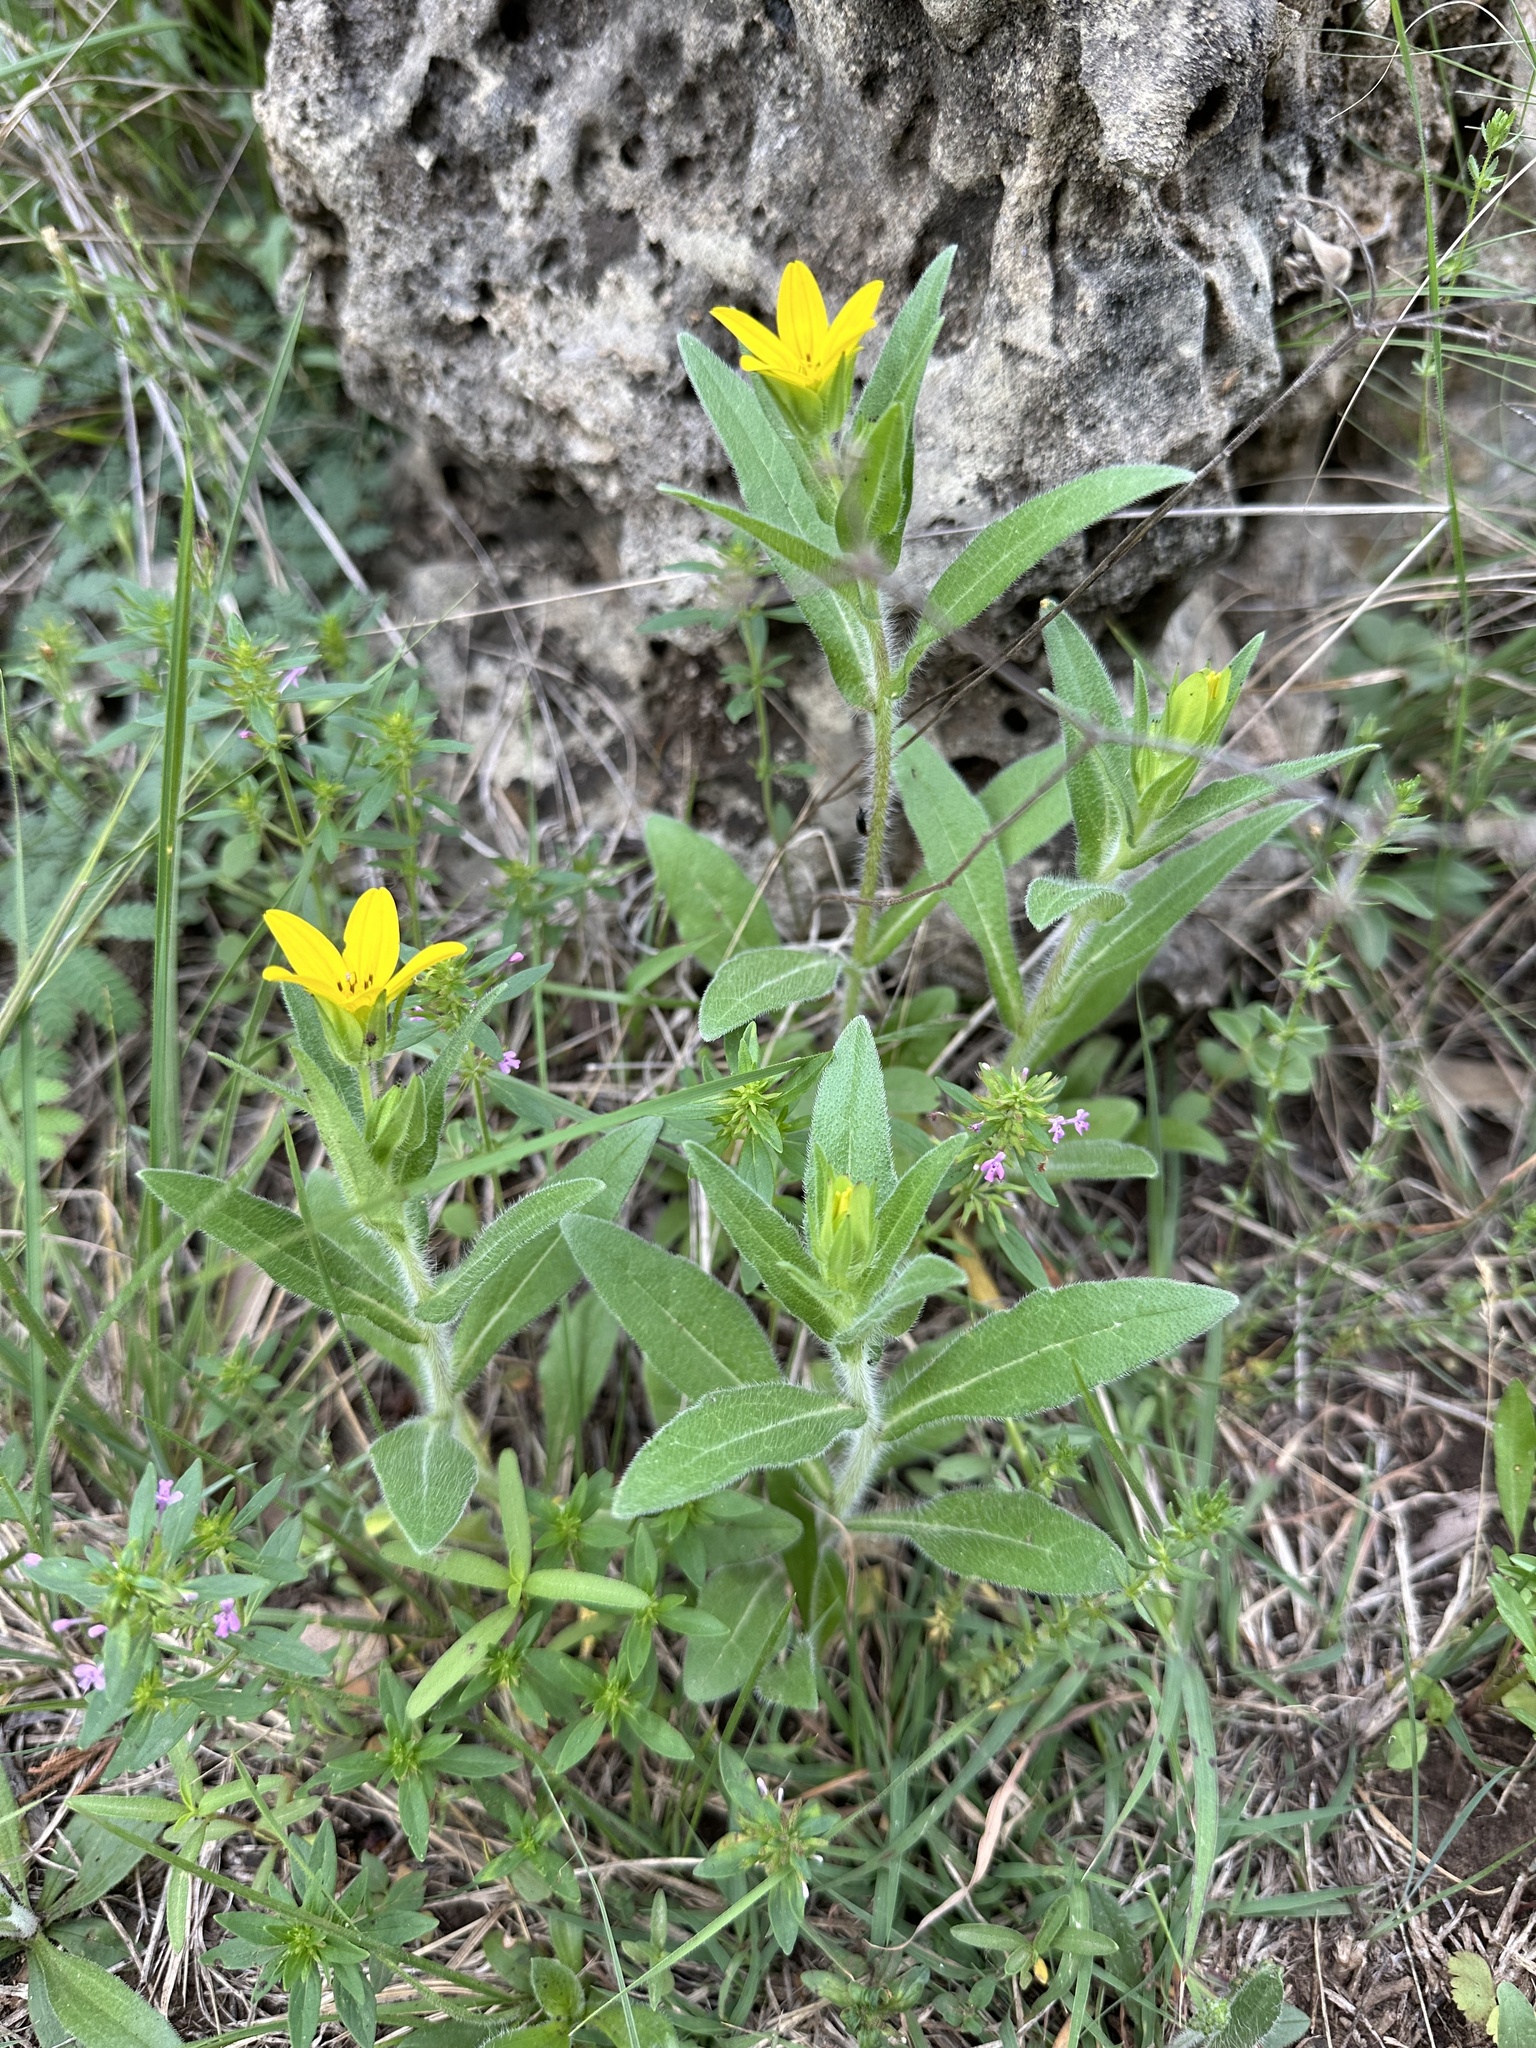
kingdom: Plantae
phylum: Tracheophyta
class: Magnoliopsida
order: Asterales
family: Asteraceae
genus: Lindheimera
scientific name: Lindheimera texana
